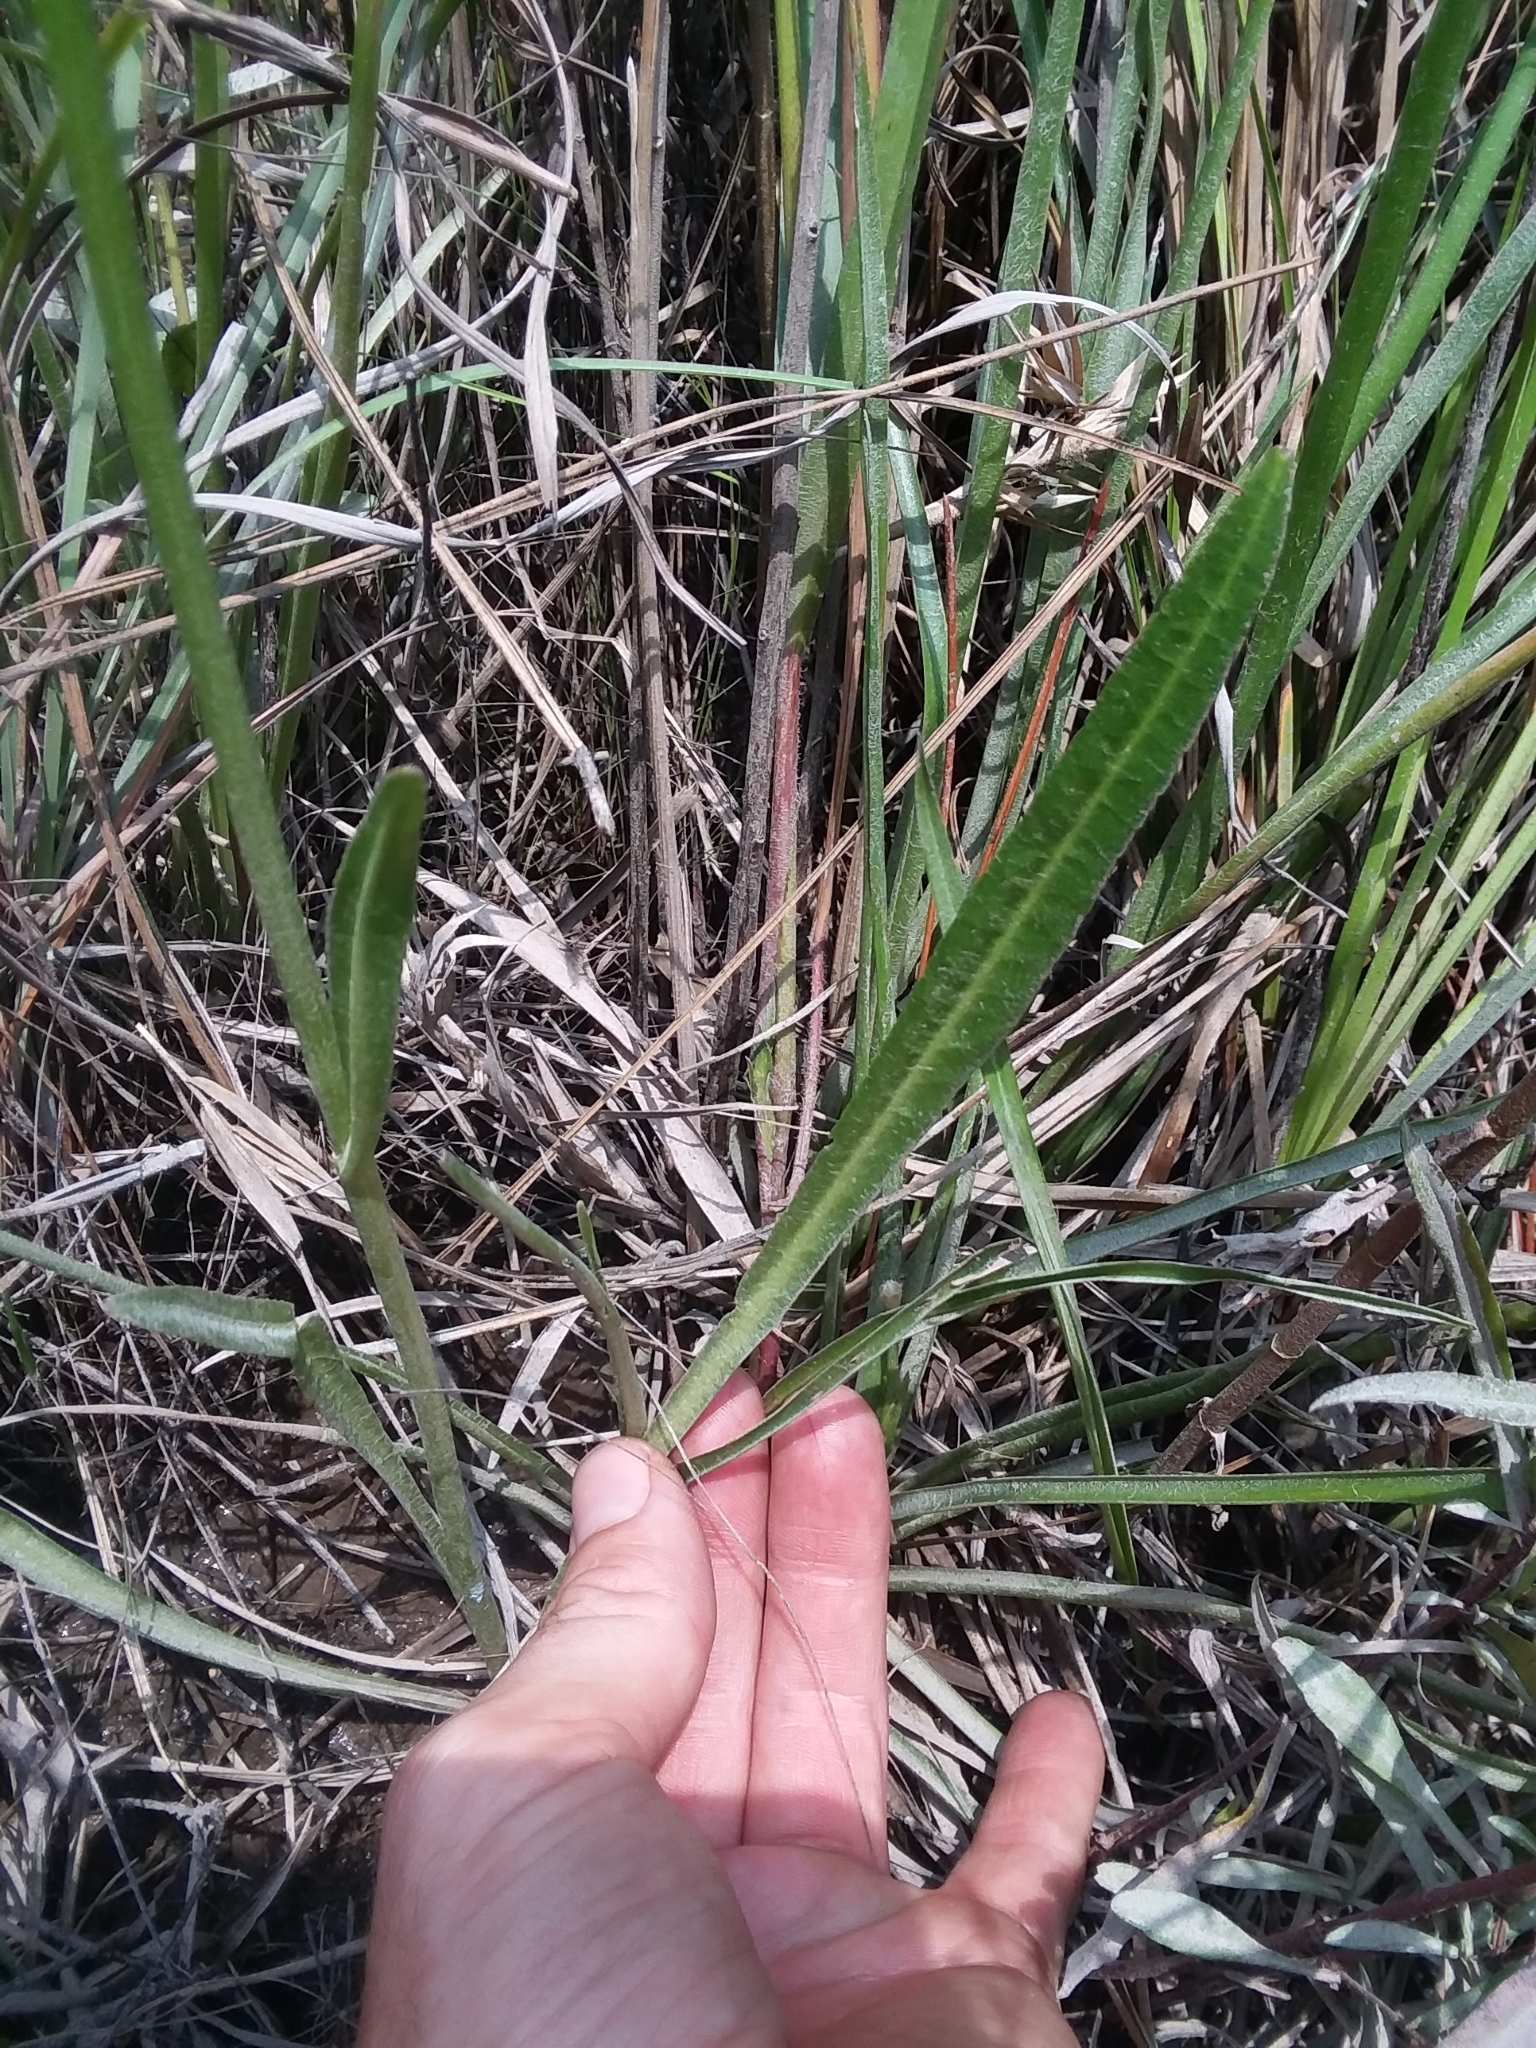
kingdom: Plantae
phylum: Tracheophyta
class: Magnoliopsida
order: Asterales
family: Campanulaceae
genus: Lobelia
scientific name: Lobelia floridana
